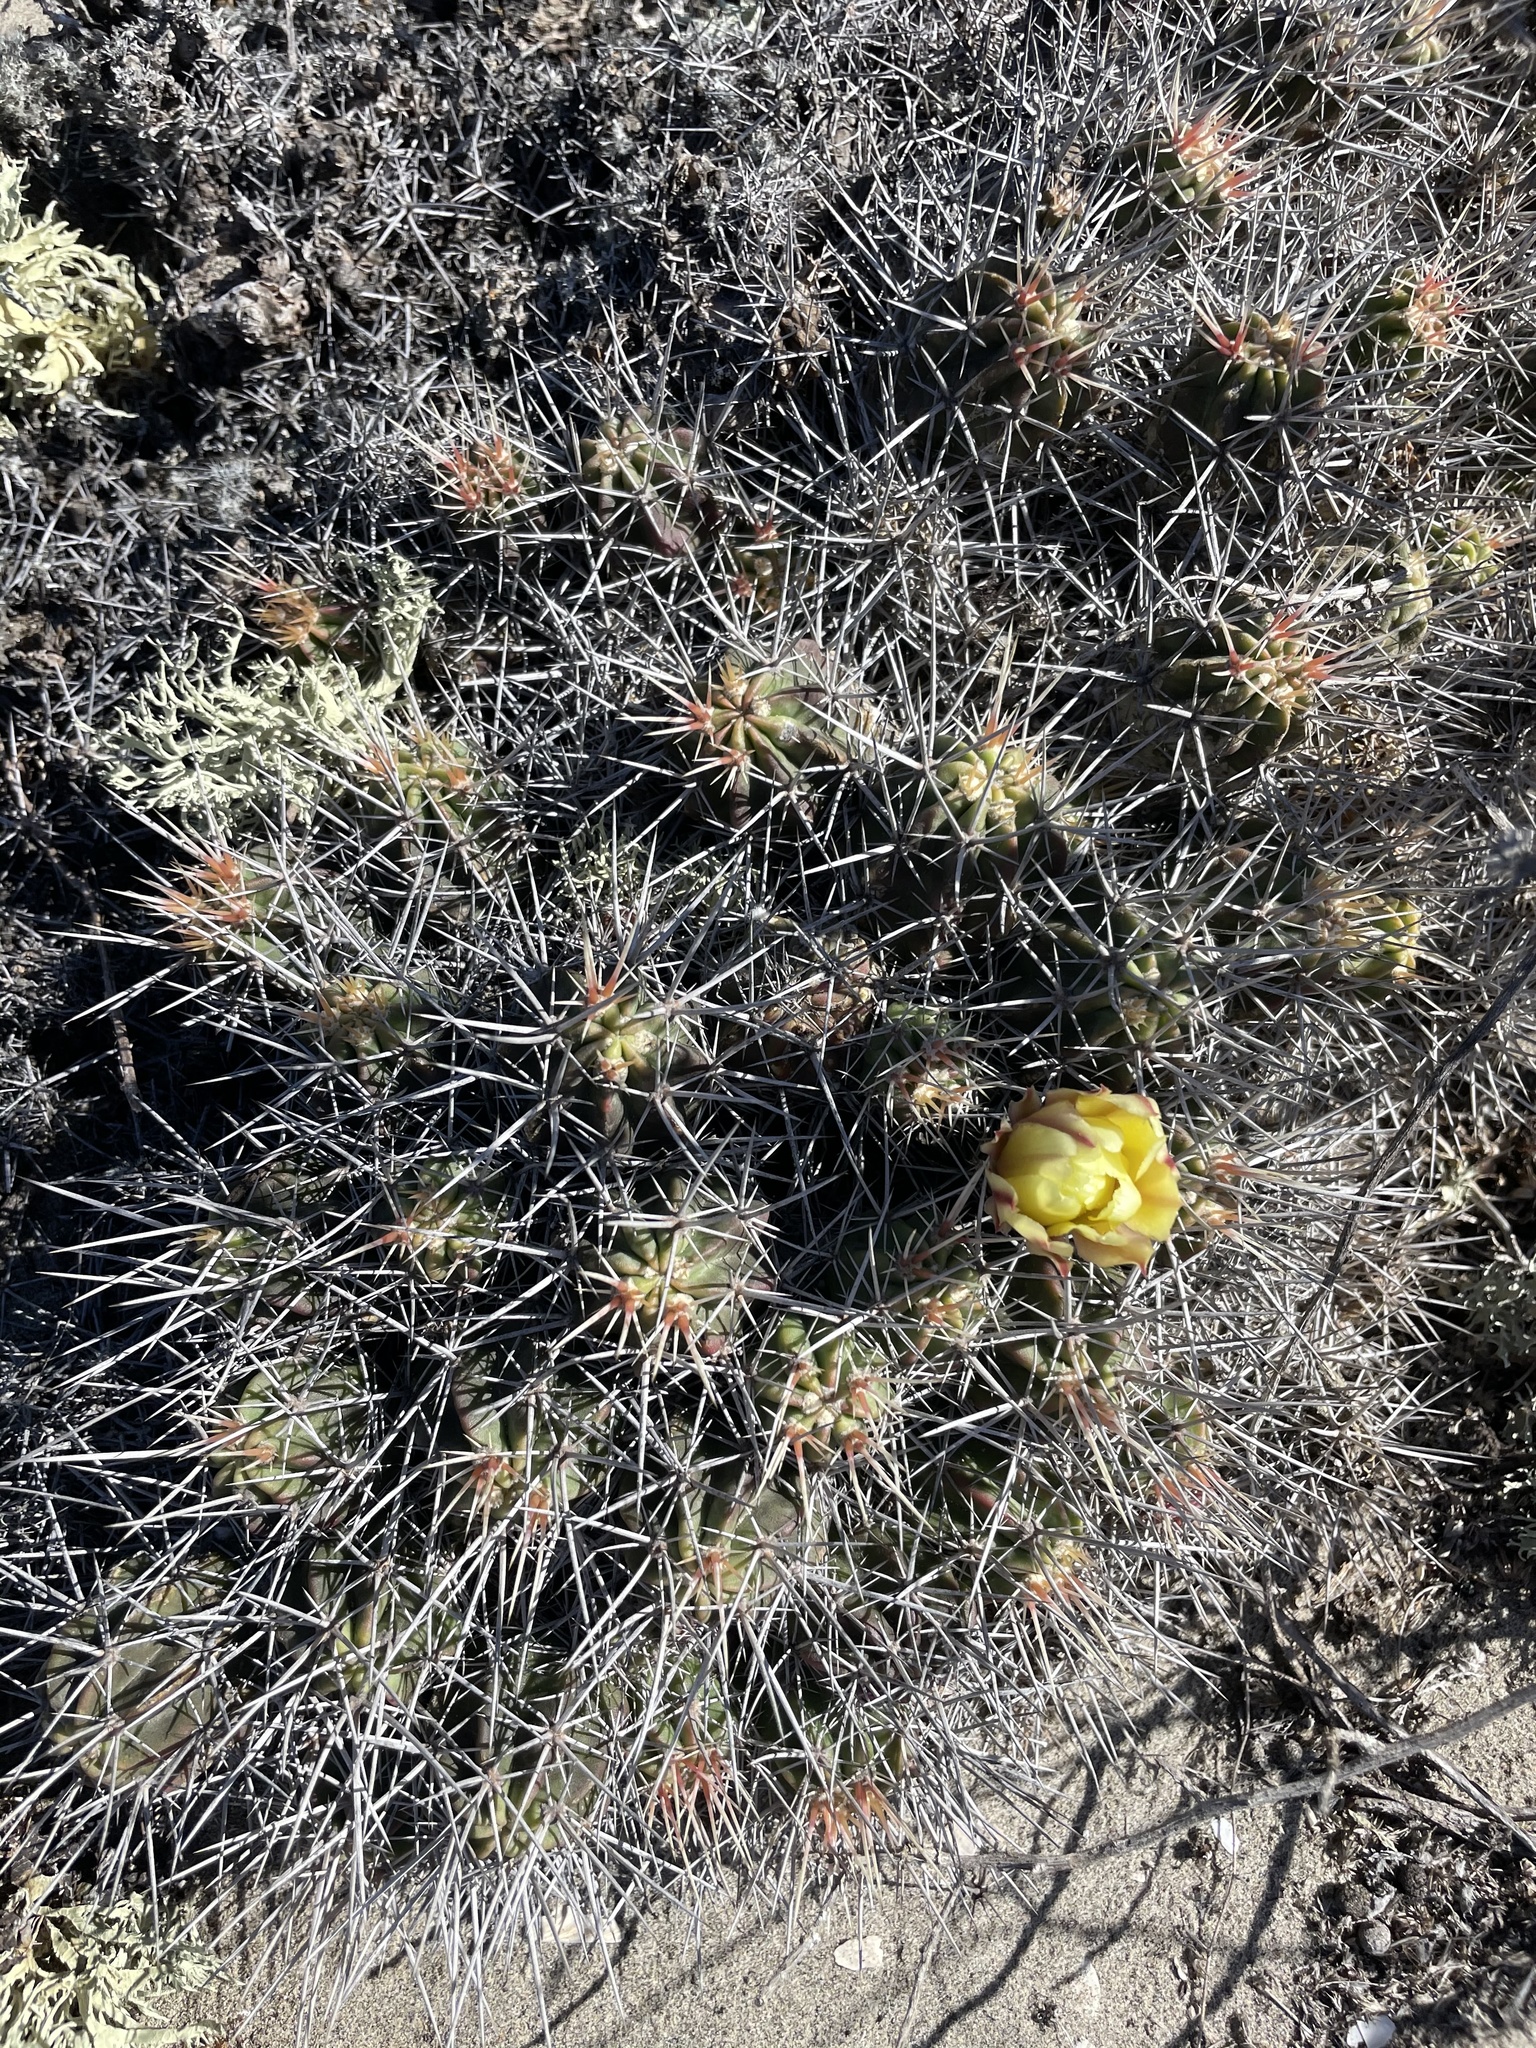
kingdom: Plantae
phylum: Tracheophyta
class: Magnoliopsida
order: Caryophyllales
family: Cactaceae
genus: Echinocereus
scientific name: Echinocereus maritimus
